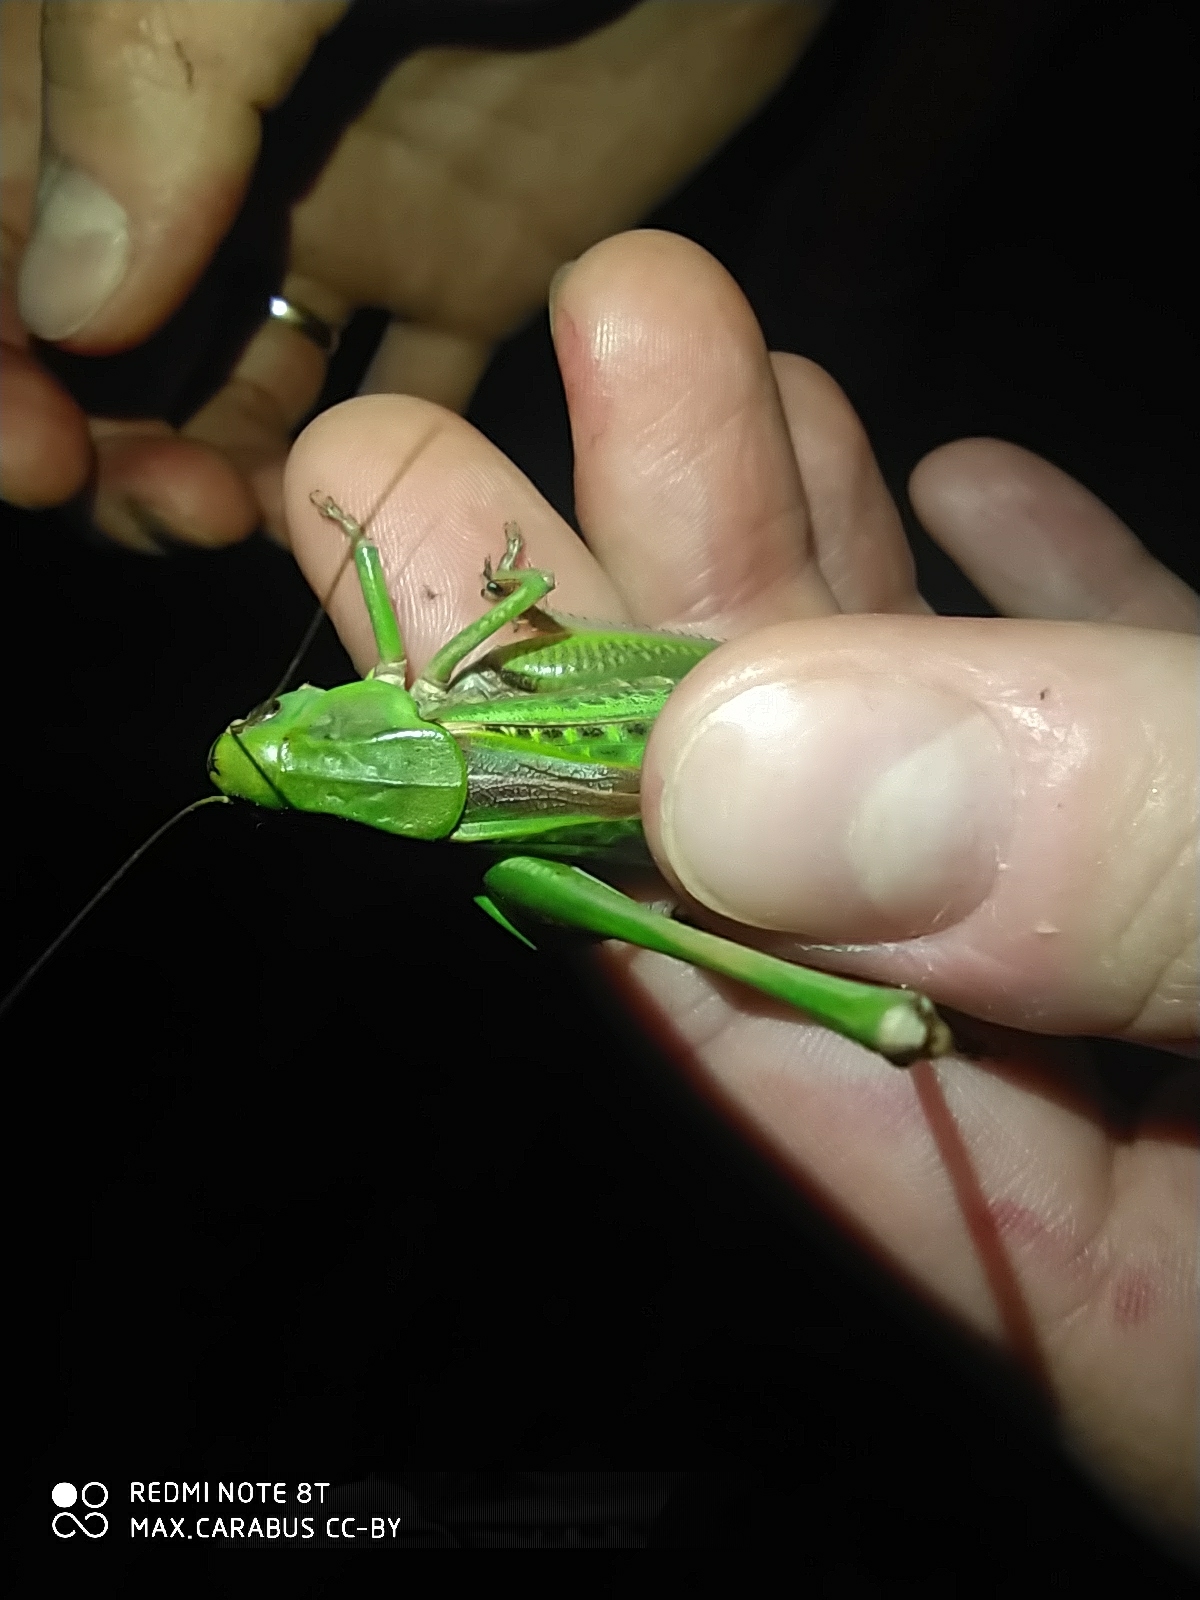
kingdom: Animalia
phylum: Arthropoda
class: Insecta
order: Orthoptera
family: Tettigoniidae
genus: Decticus
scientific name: Decticus verrucivorus
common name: Wart-biter
